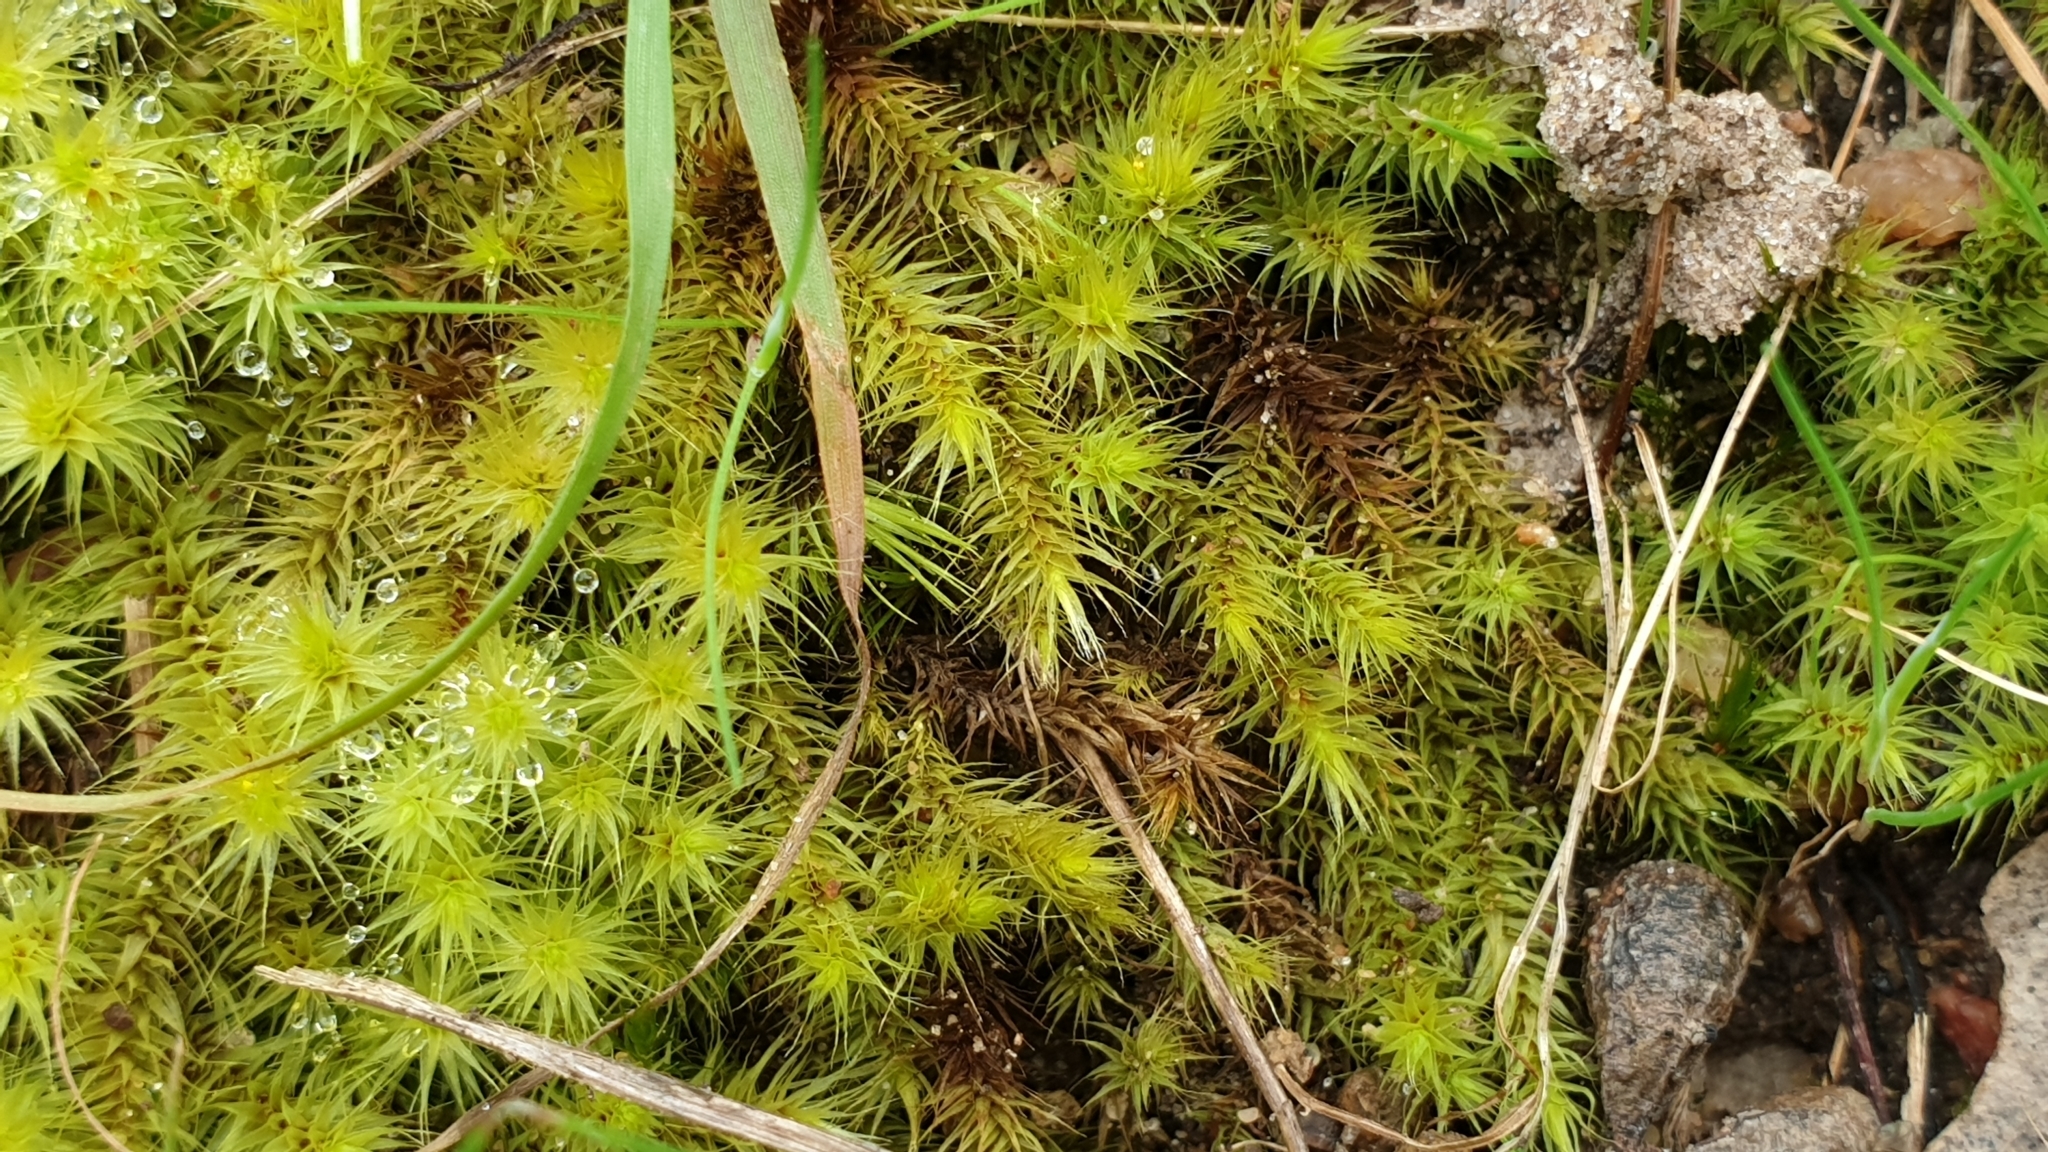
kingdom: Plantae
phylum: Bryophyta
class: Bryopsida
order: Bartramiales
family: Bartramiaceae
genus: Breutelia
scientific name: Breutelia affinis
